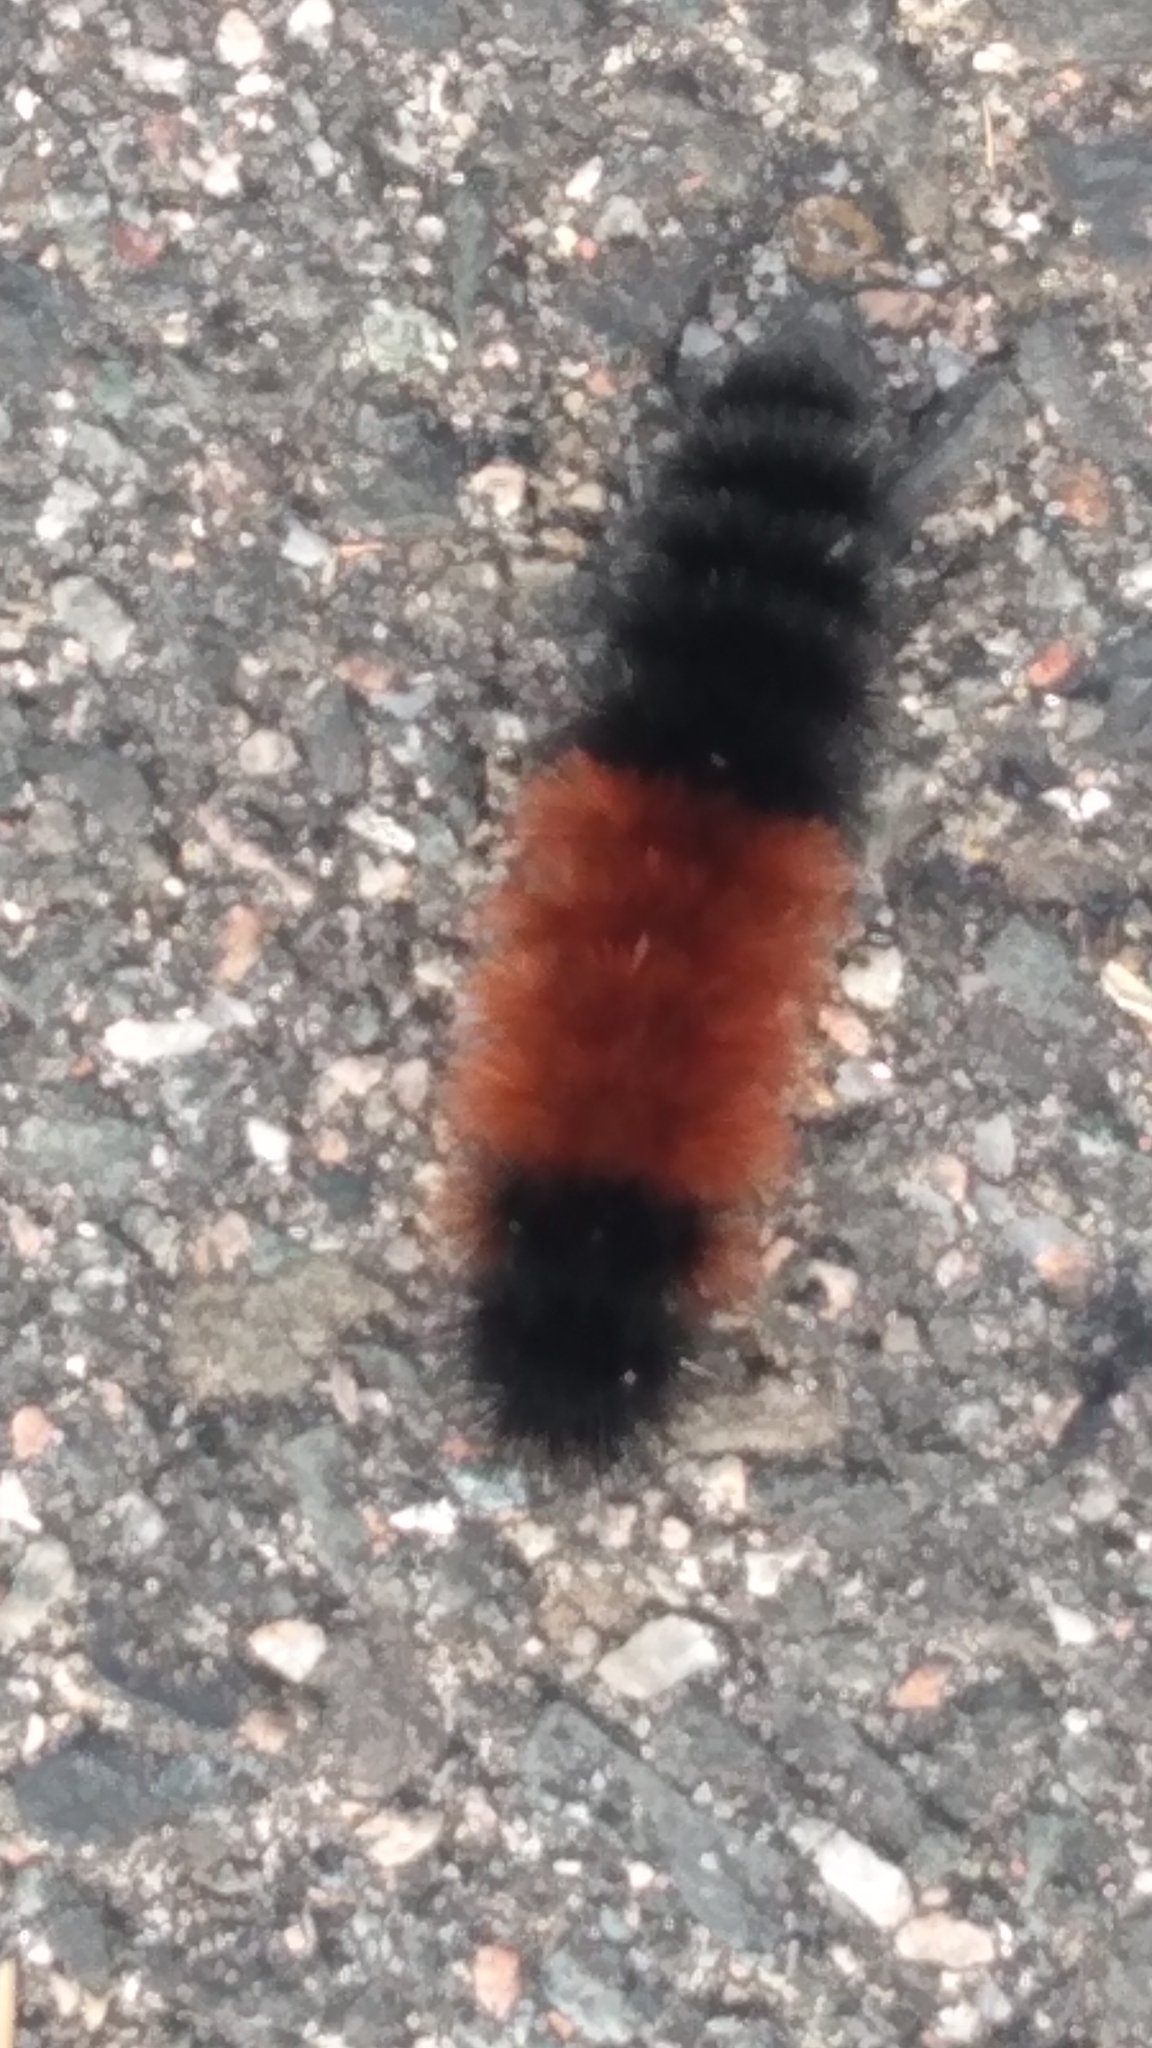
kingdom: Animalia
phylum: Arthropoda
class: Insecta
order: Lepidoptera
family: Erebidae
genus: Pyrrharctia
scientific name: Pyrrharctia isabella
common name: Isabella tiger moth
